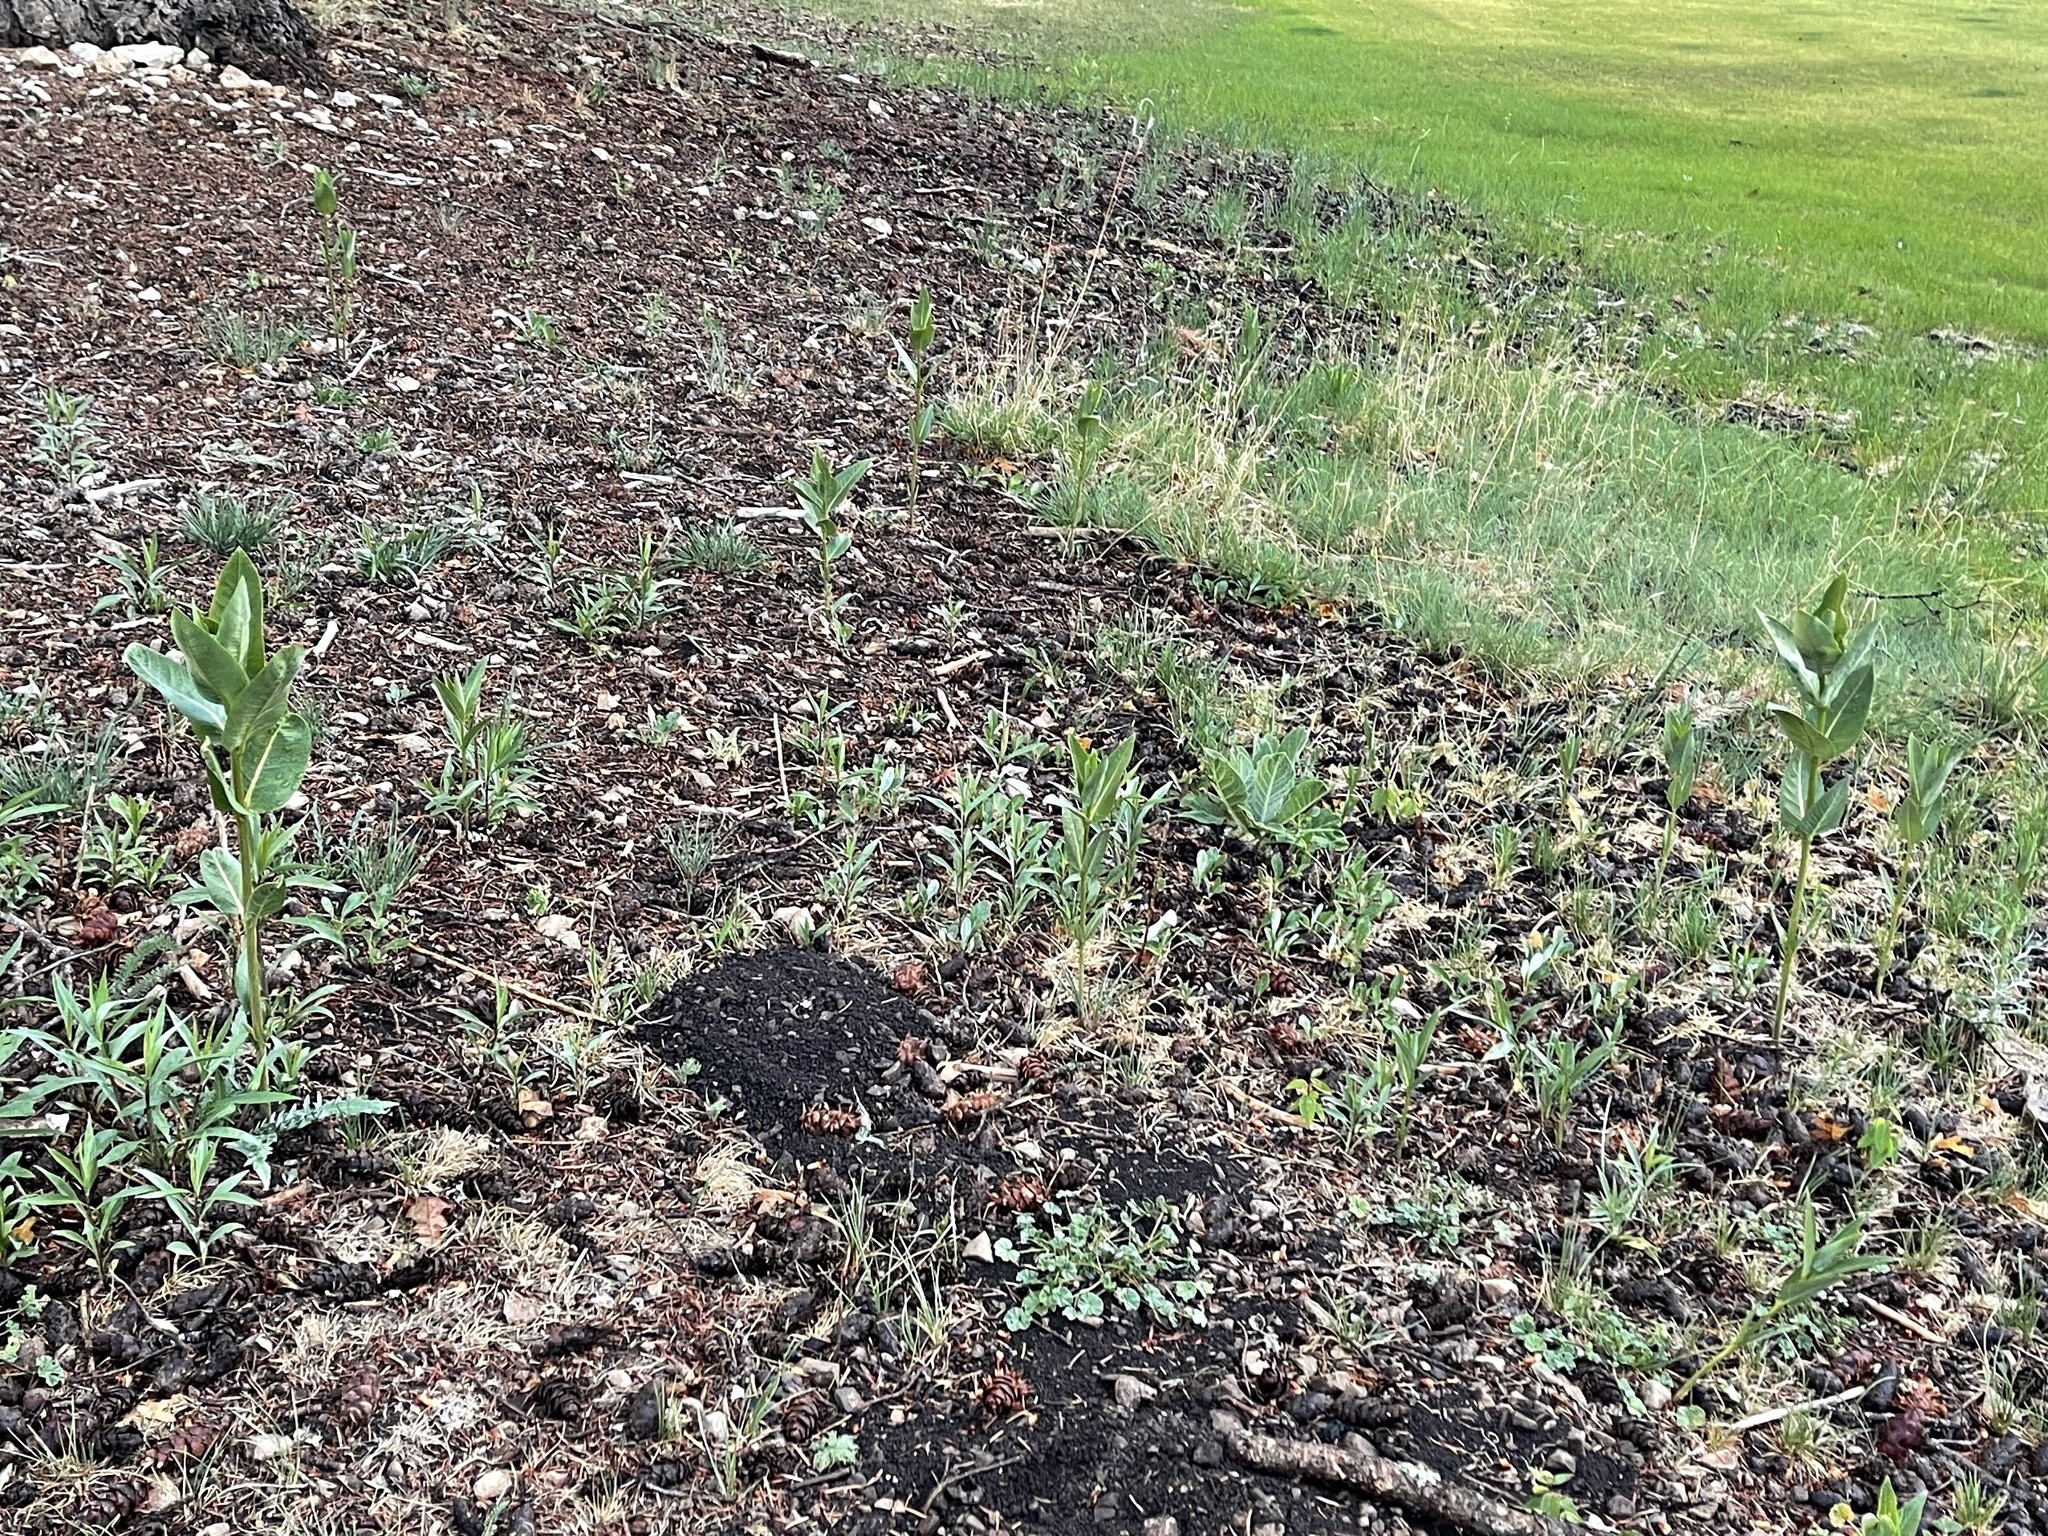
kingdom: Plantae
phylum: Tracheophyta
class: Magnoliopsida
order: Gentianales
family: Apocynaceae
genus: Asclepias
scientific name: Asclepias speciosa
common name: Showy milkweed
